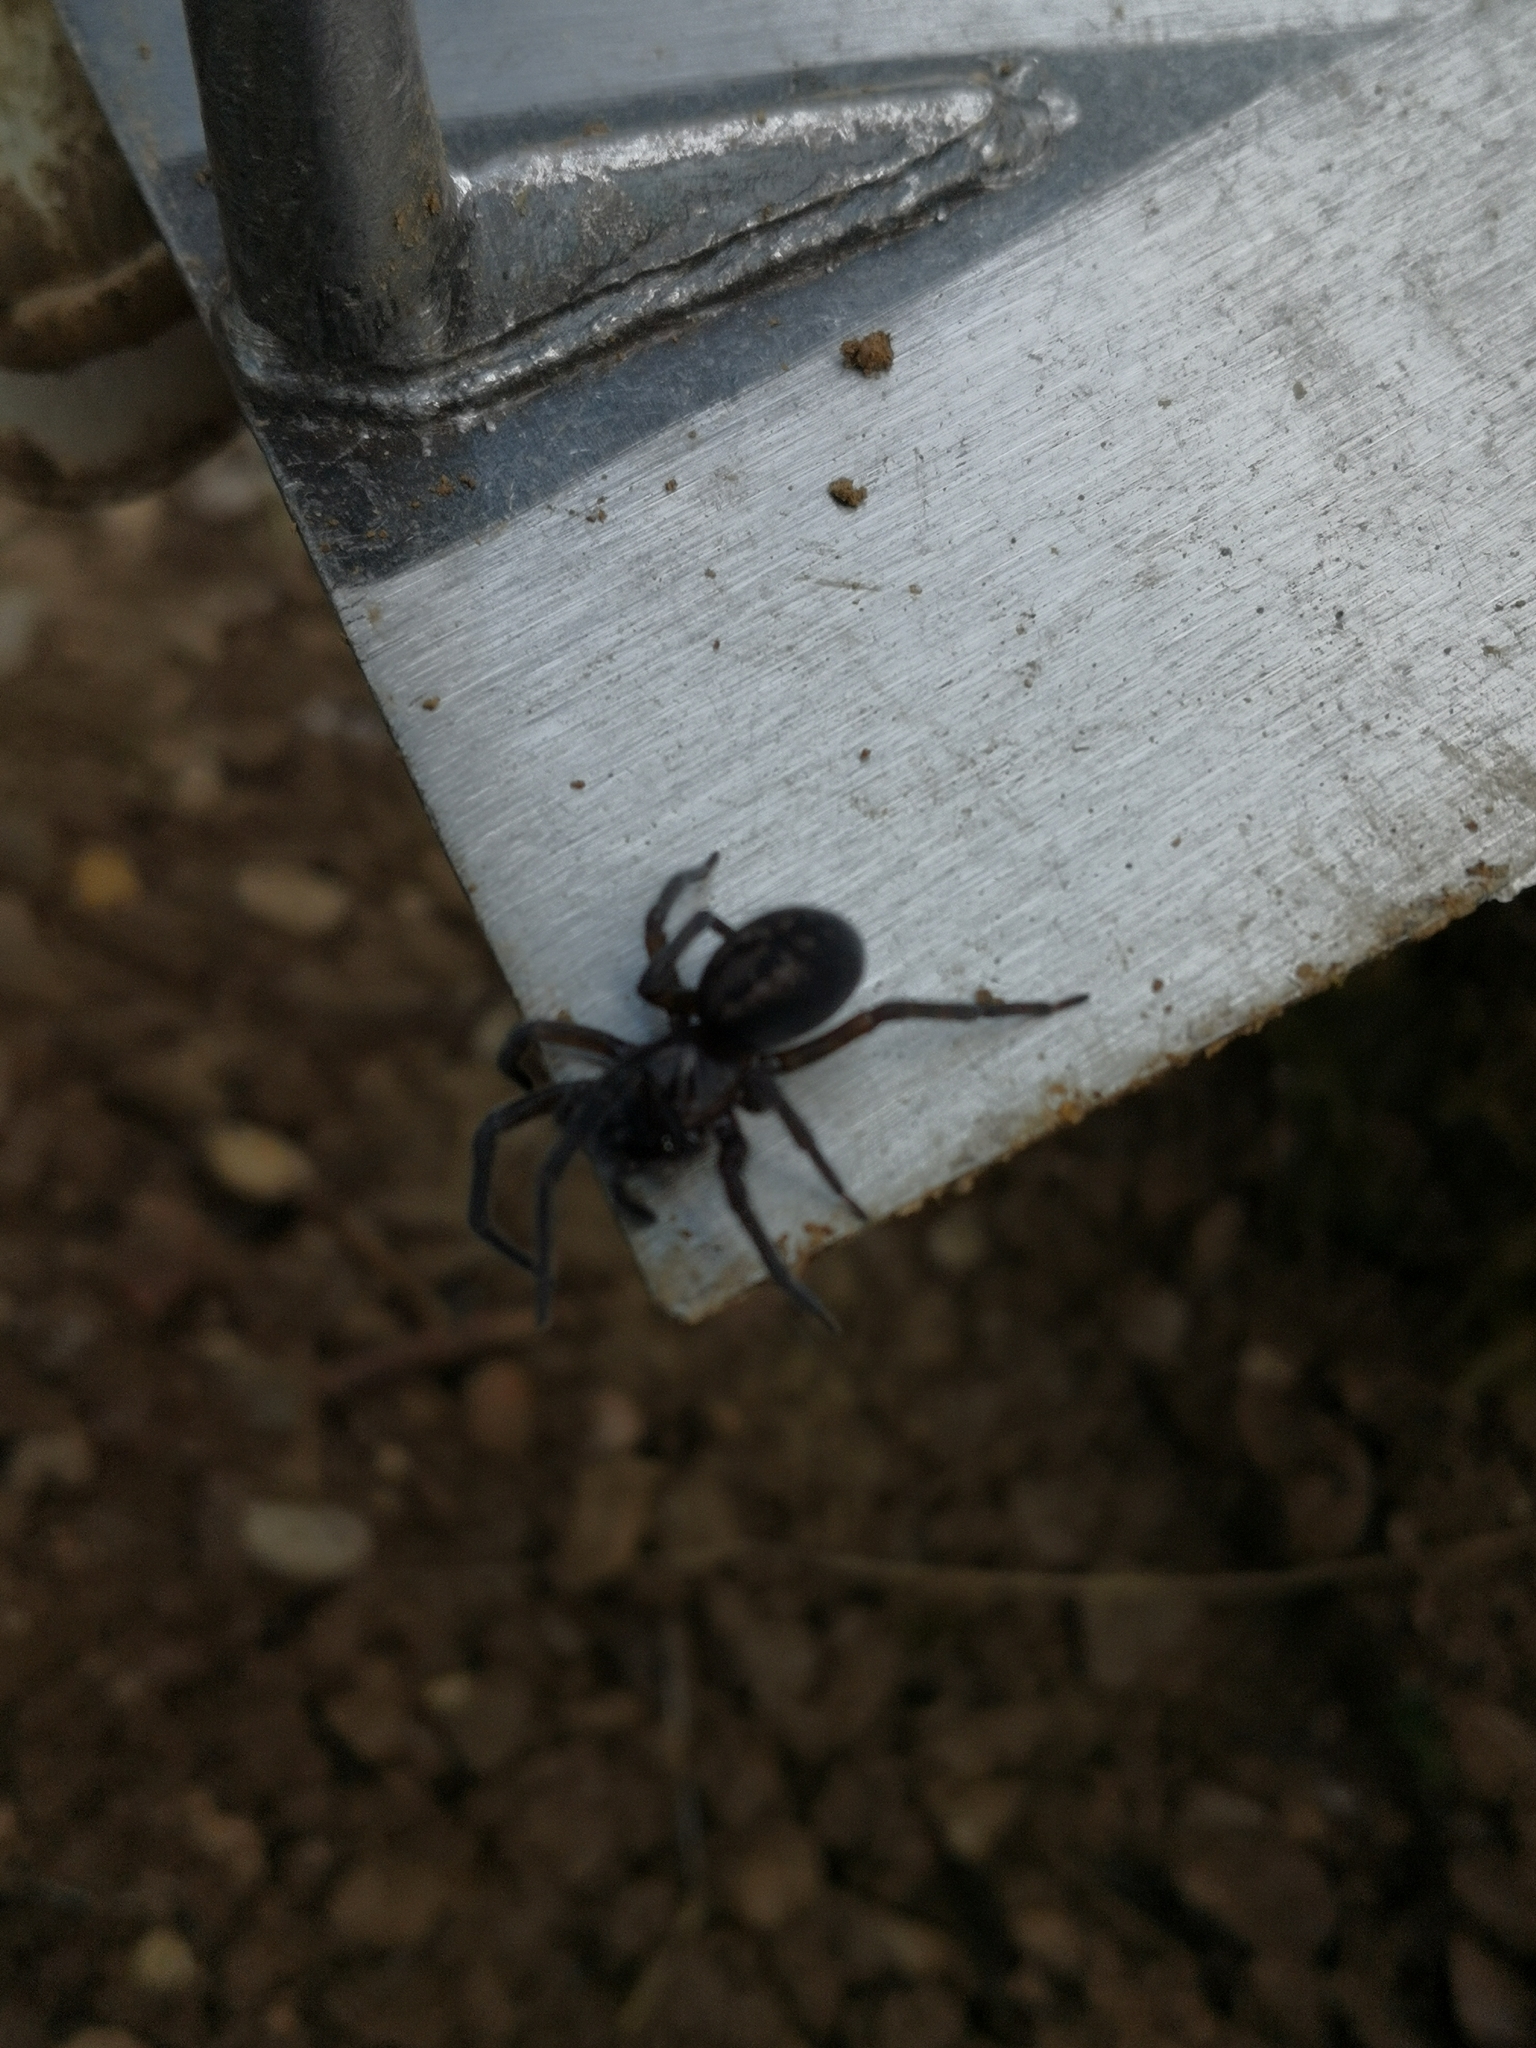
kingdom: Animalia
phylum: Arthropoda
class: Arachnida
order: Araneae
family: Amaurobiidae
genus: Amaurobius
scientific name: Amaurobius ferox
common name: Black laceweaver
